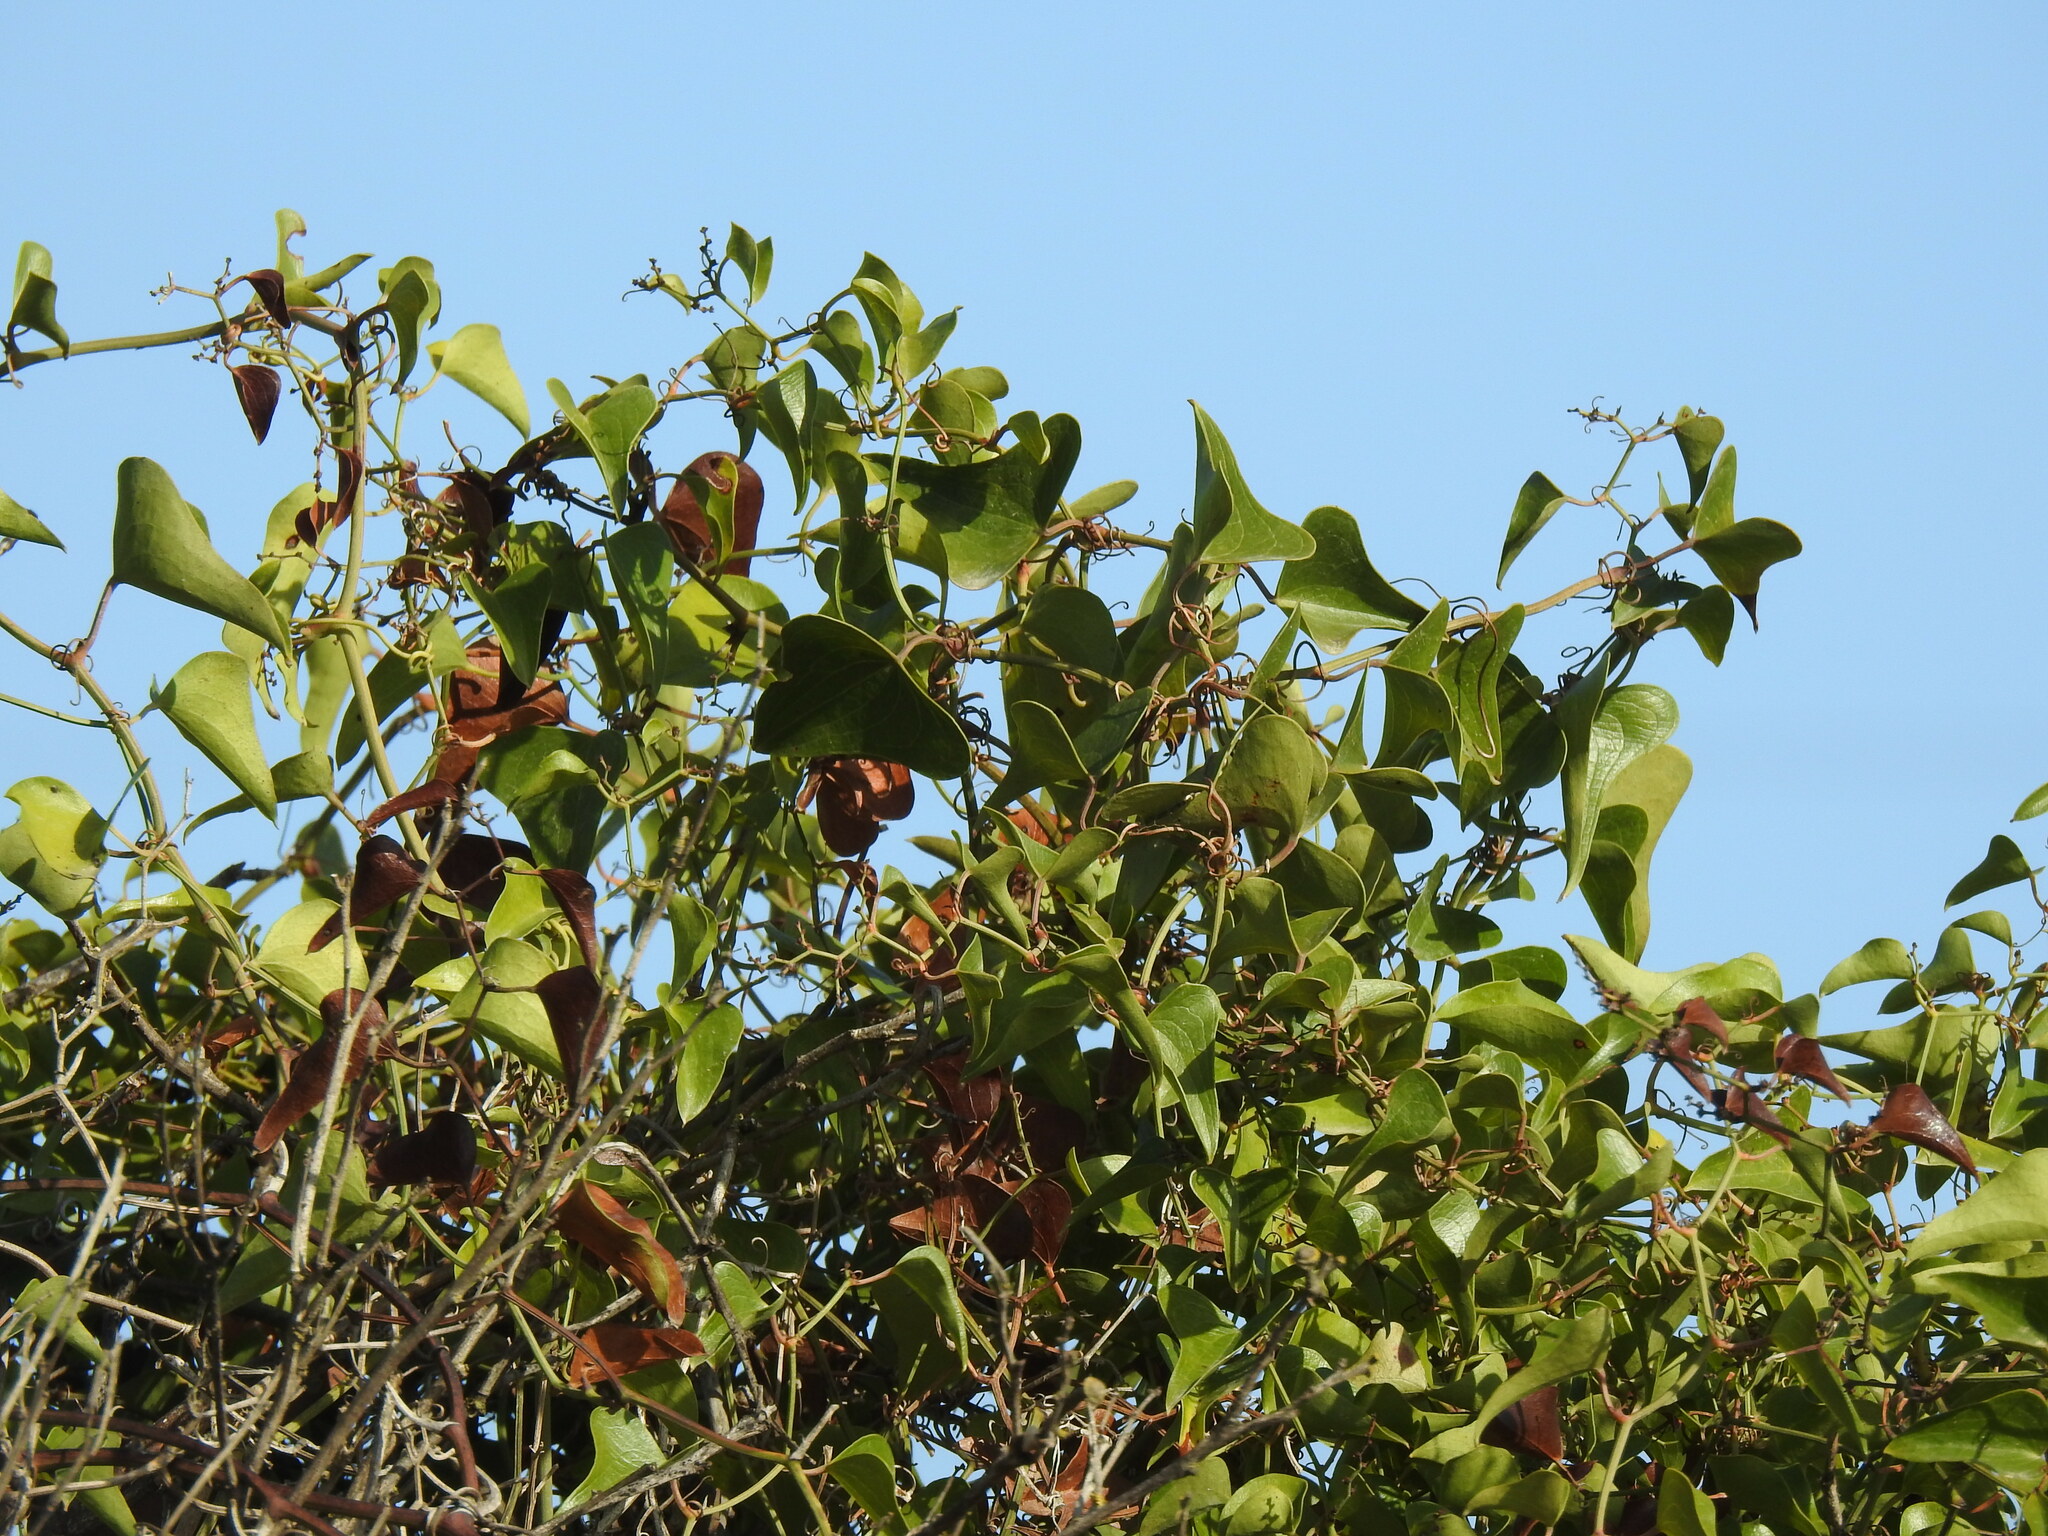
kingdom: Plantae
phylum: Tracheophyta
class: Liliopsida
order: Liliales
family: Smilacaceae
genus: Smilax
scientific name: Smilax aspera
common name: Common smilax
